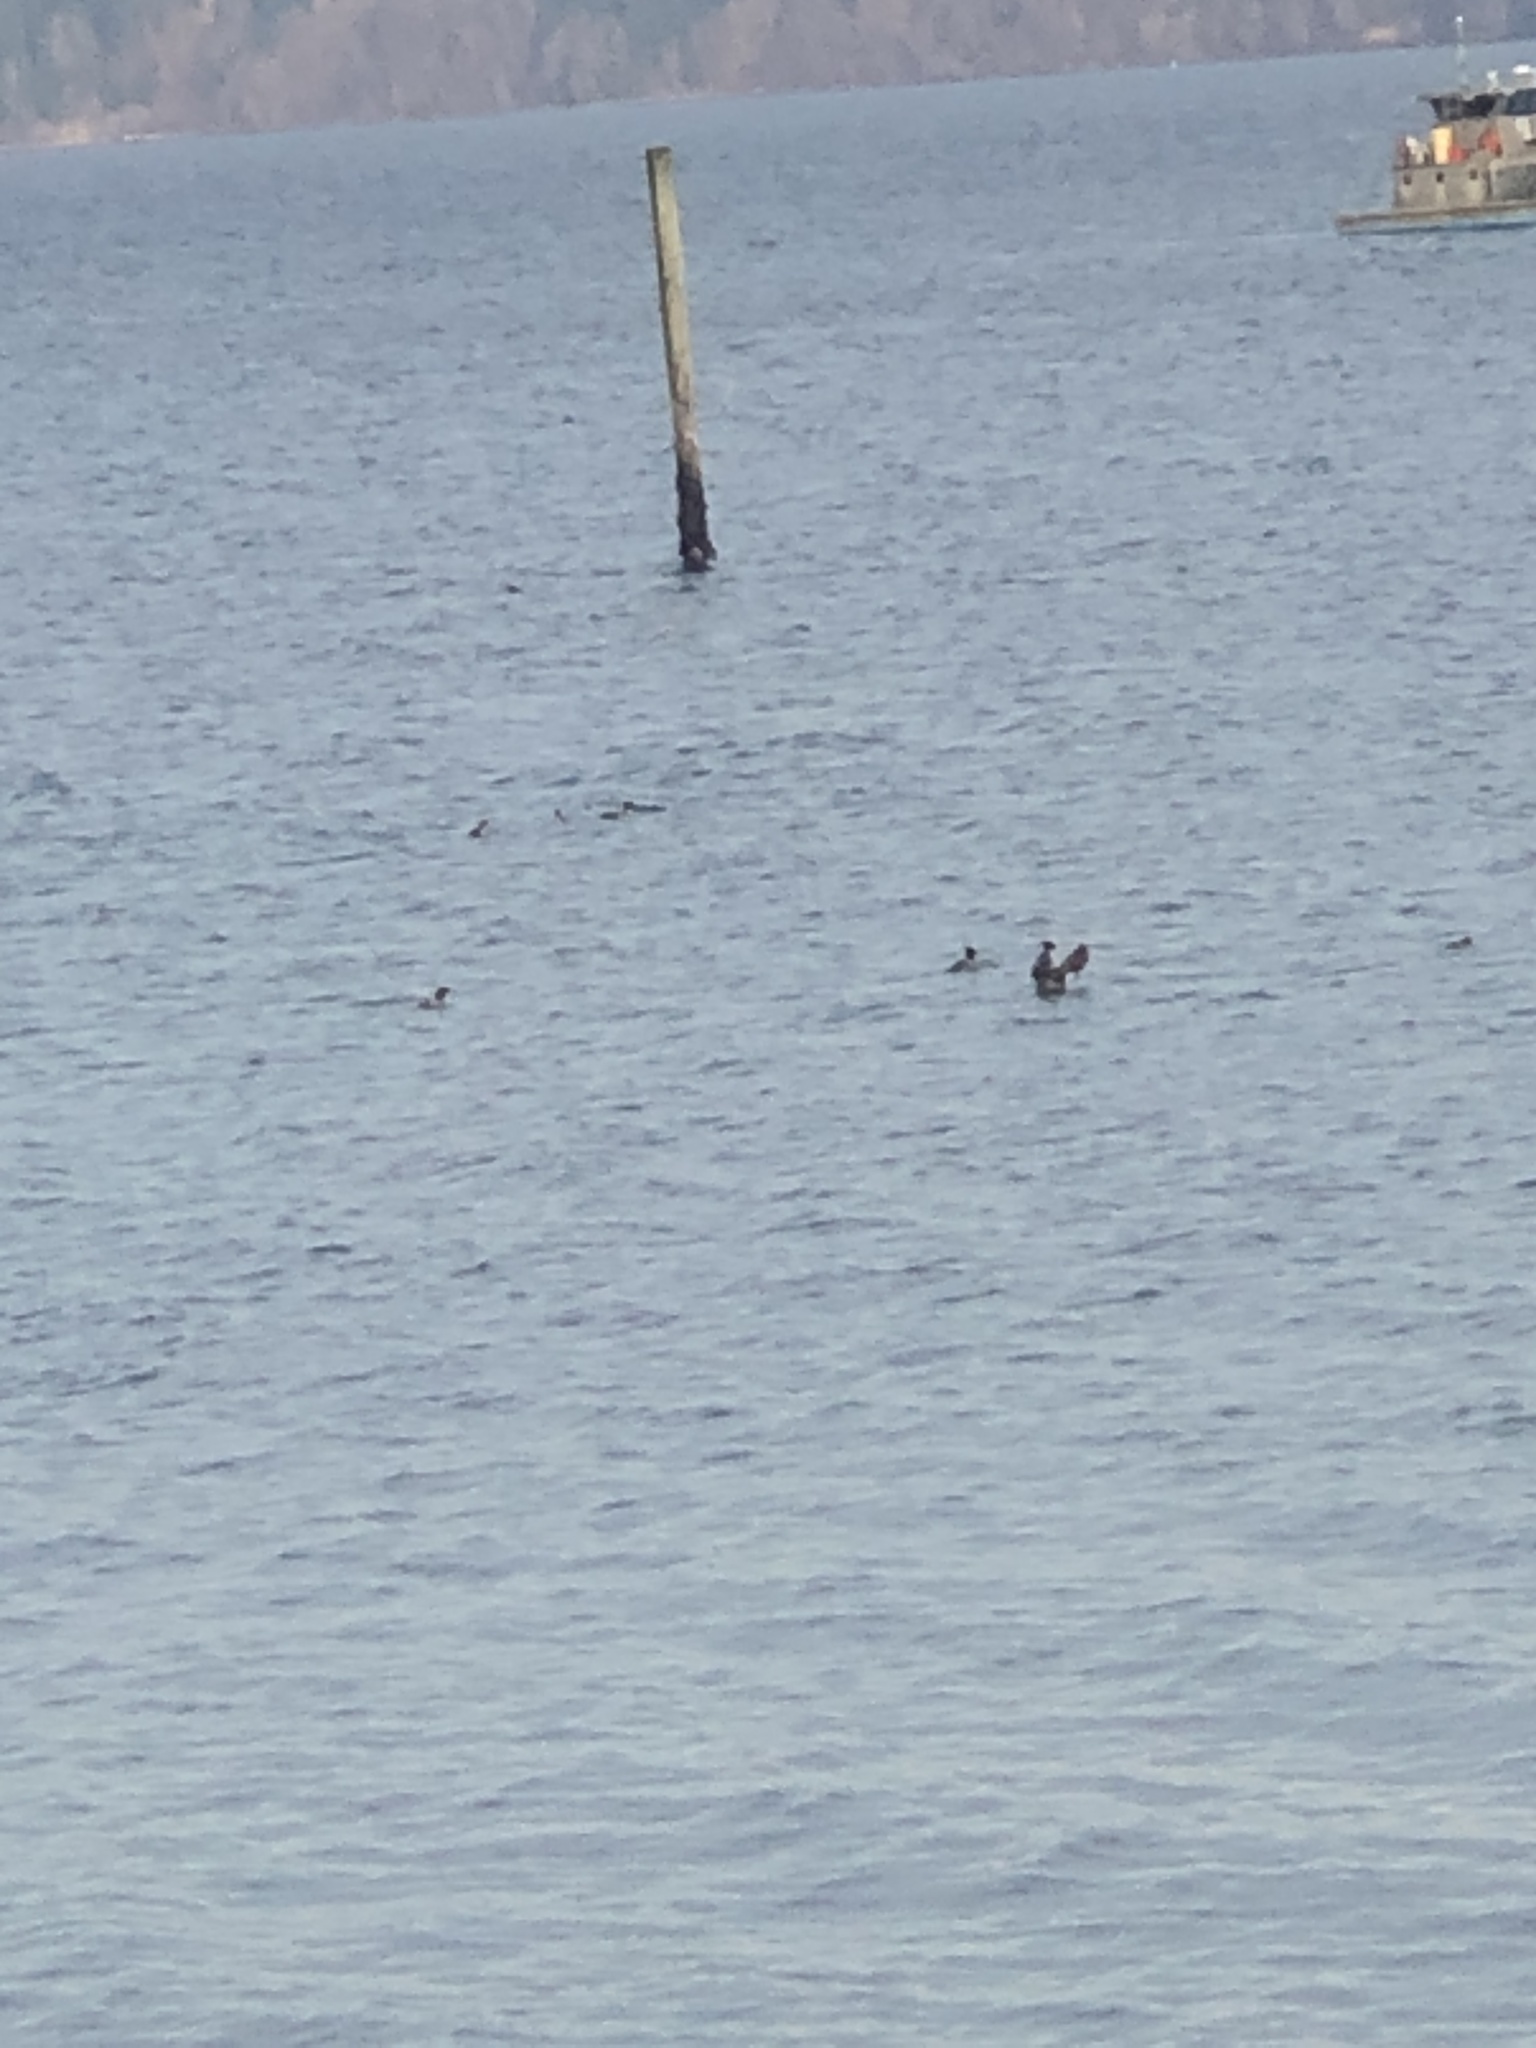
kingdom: Animalia
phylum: Chordata
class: Aves
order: Anseriformes
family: Anatidae
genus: Clangula
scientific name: Clangula hyemalis
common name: Long-tailed duck
